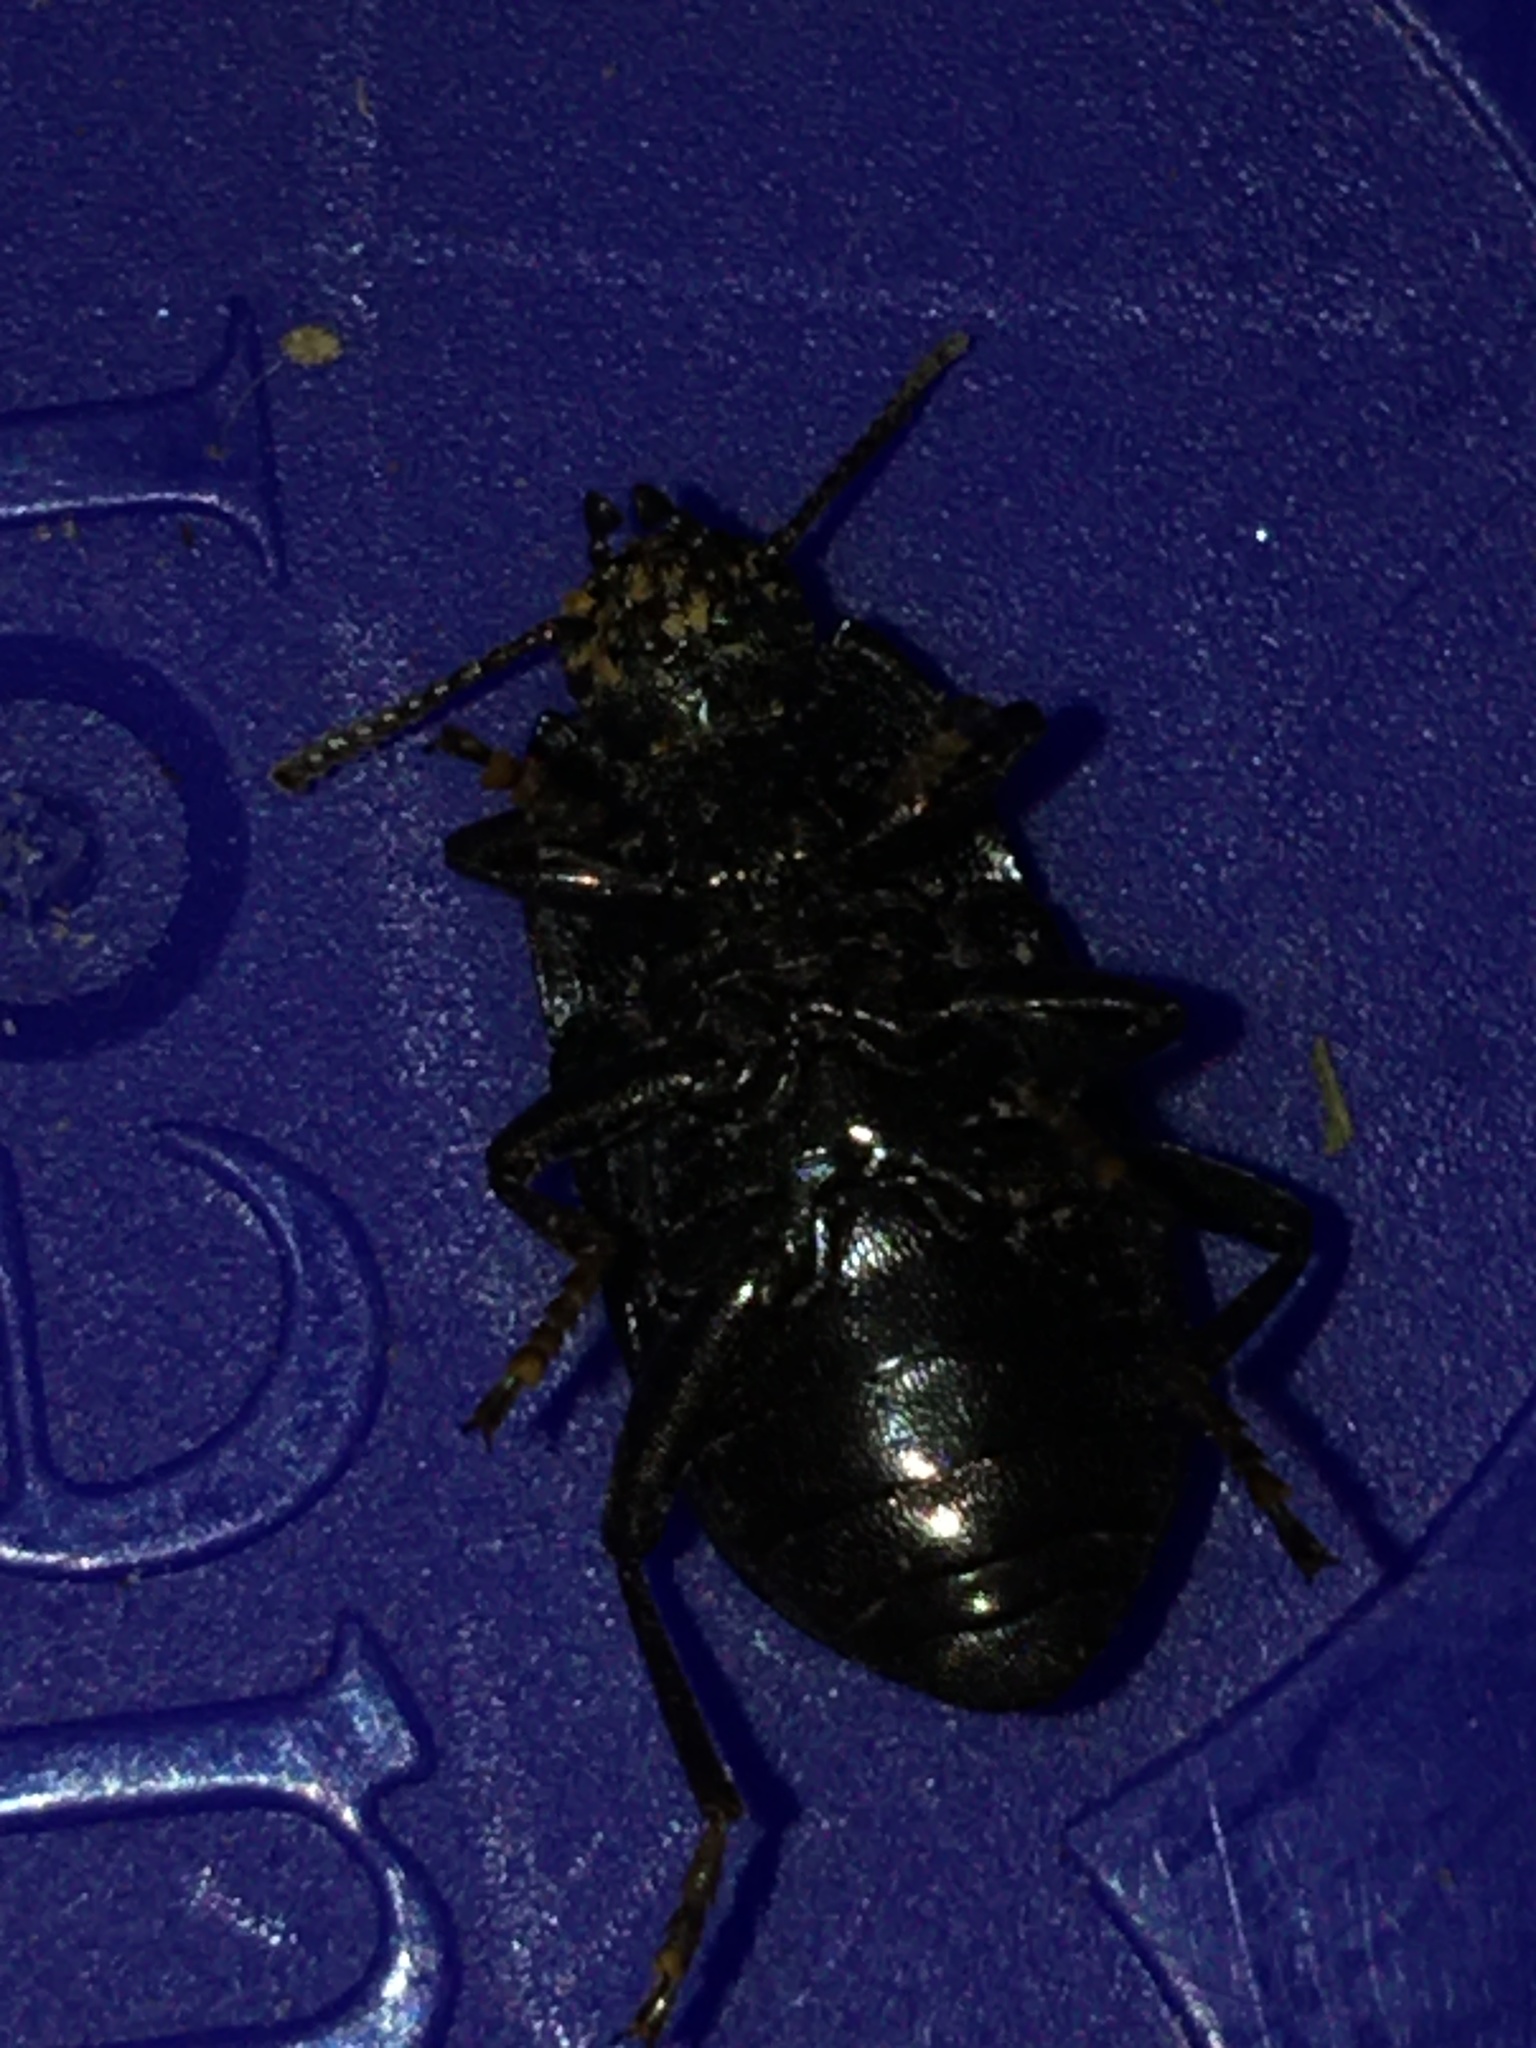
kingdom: Animalia
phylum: Arthropoda
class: Insecta
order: Coleoptera
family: Tenebrionidae
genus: Asiopus
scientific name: Asiopus
